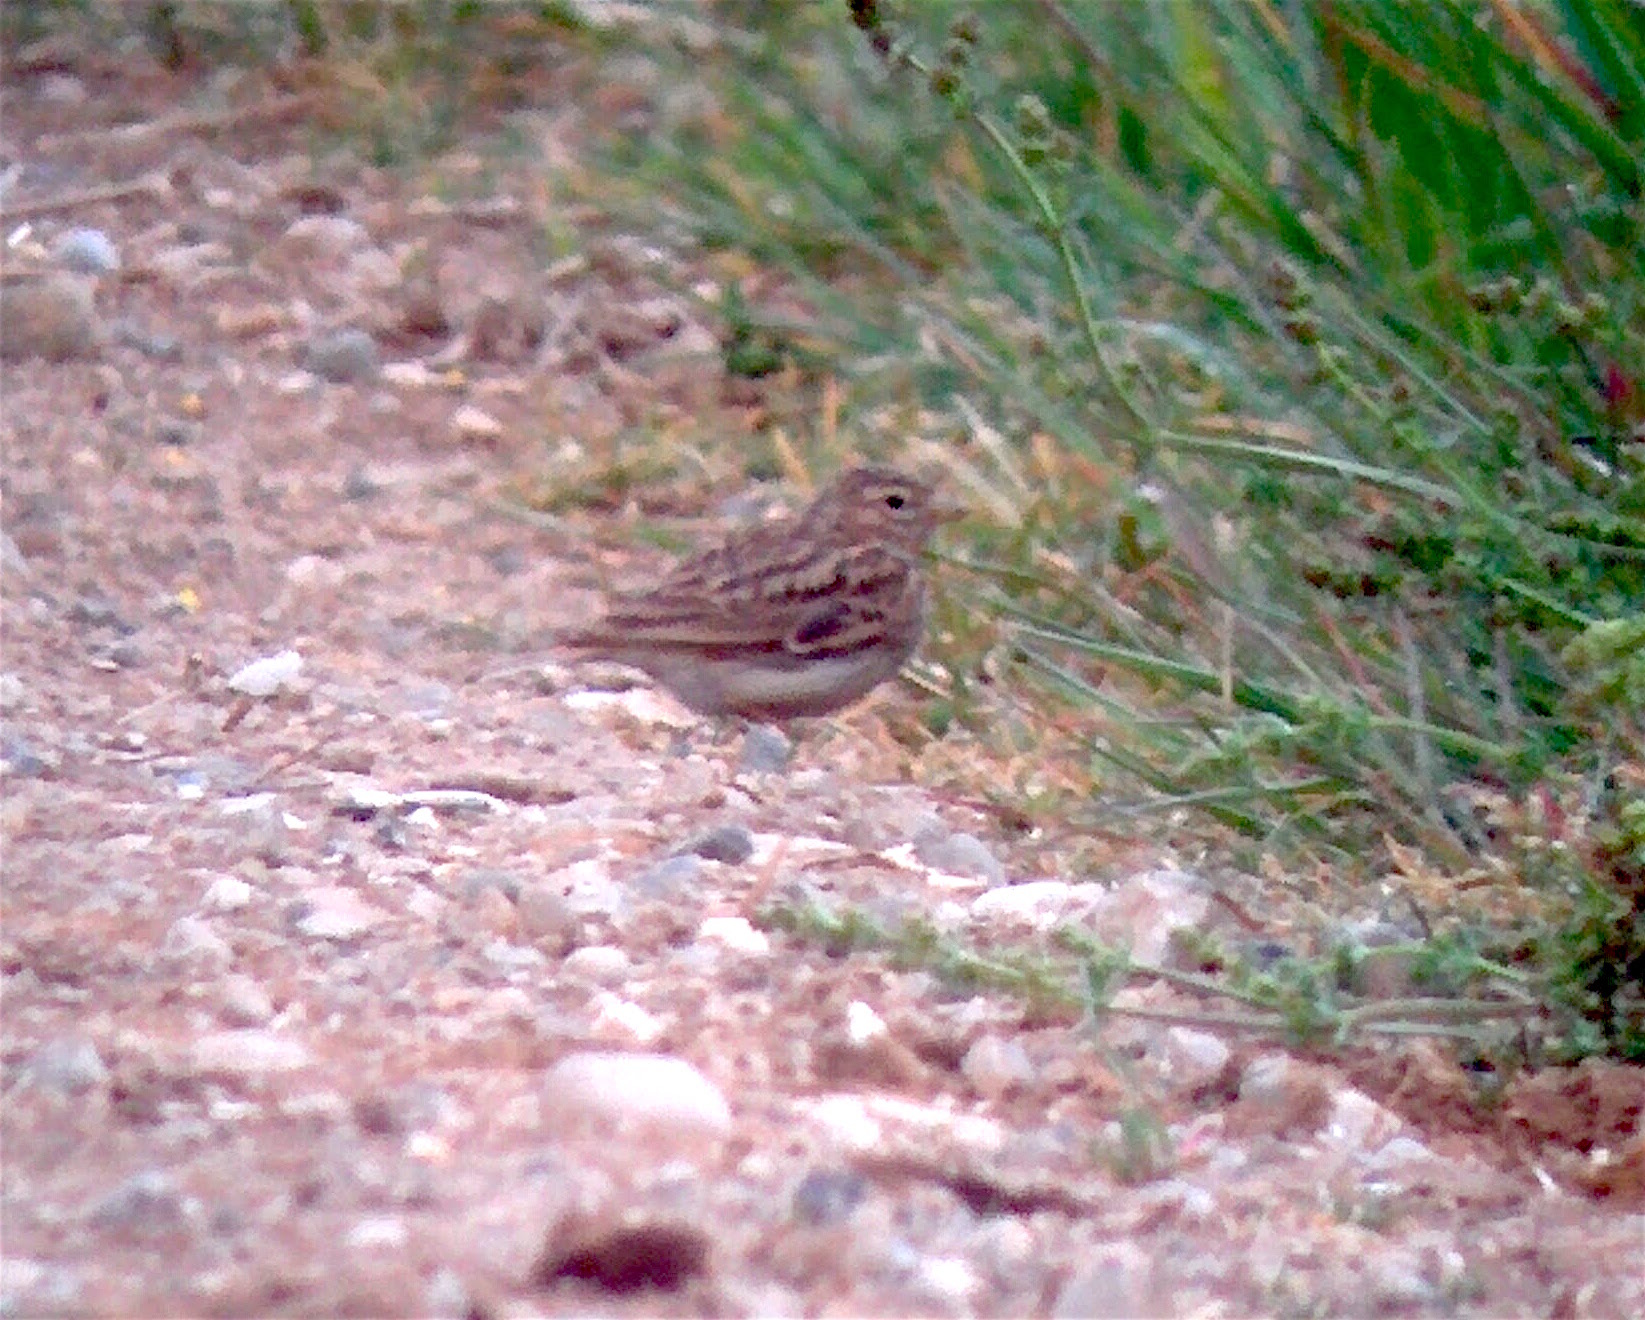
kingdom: Animalia
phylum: Chordata
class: Aves
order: Passeriformes
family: Alaudidae
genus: Calandrella
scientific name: Calandrella rufescens
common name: Lesser short-toed lark
